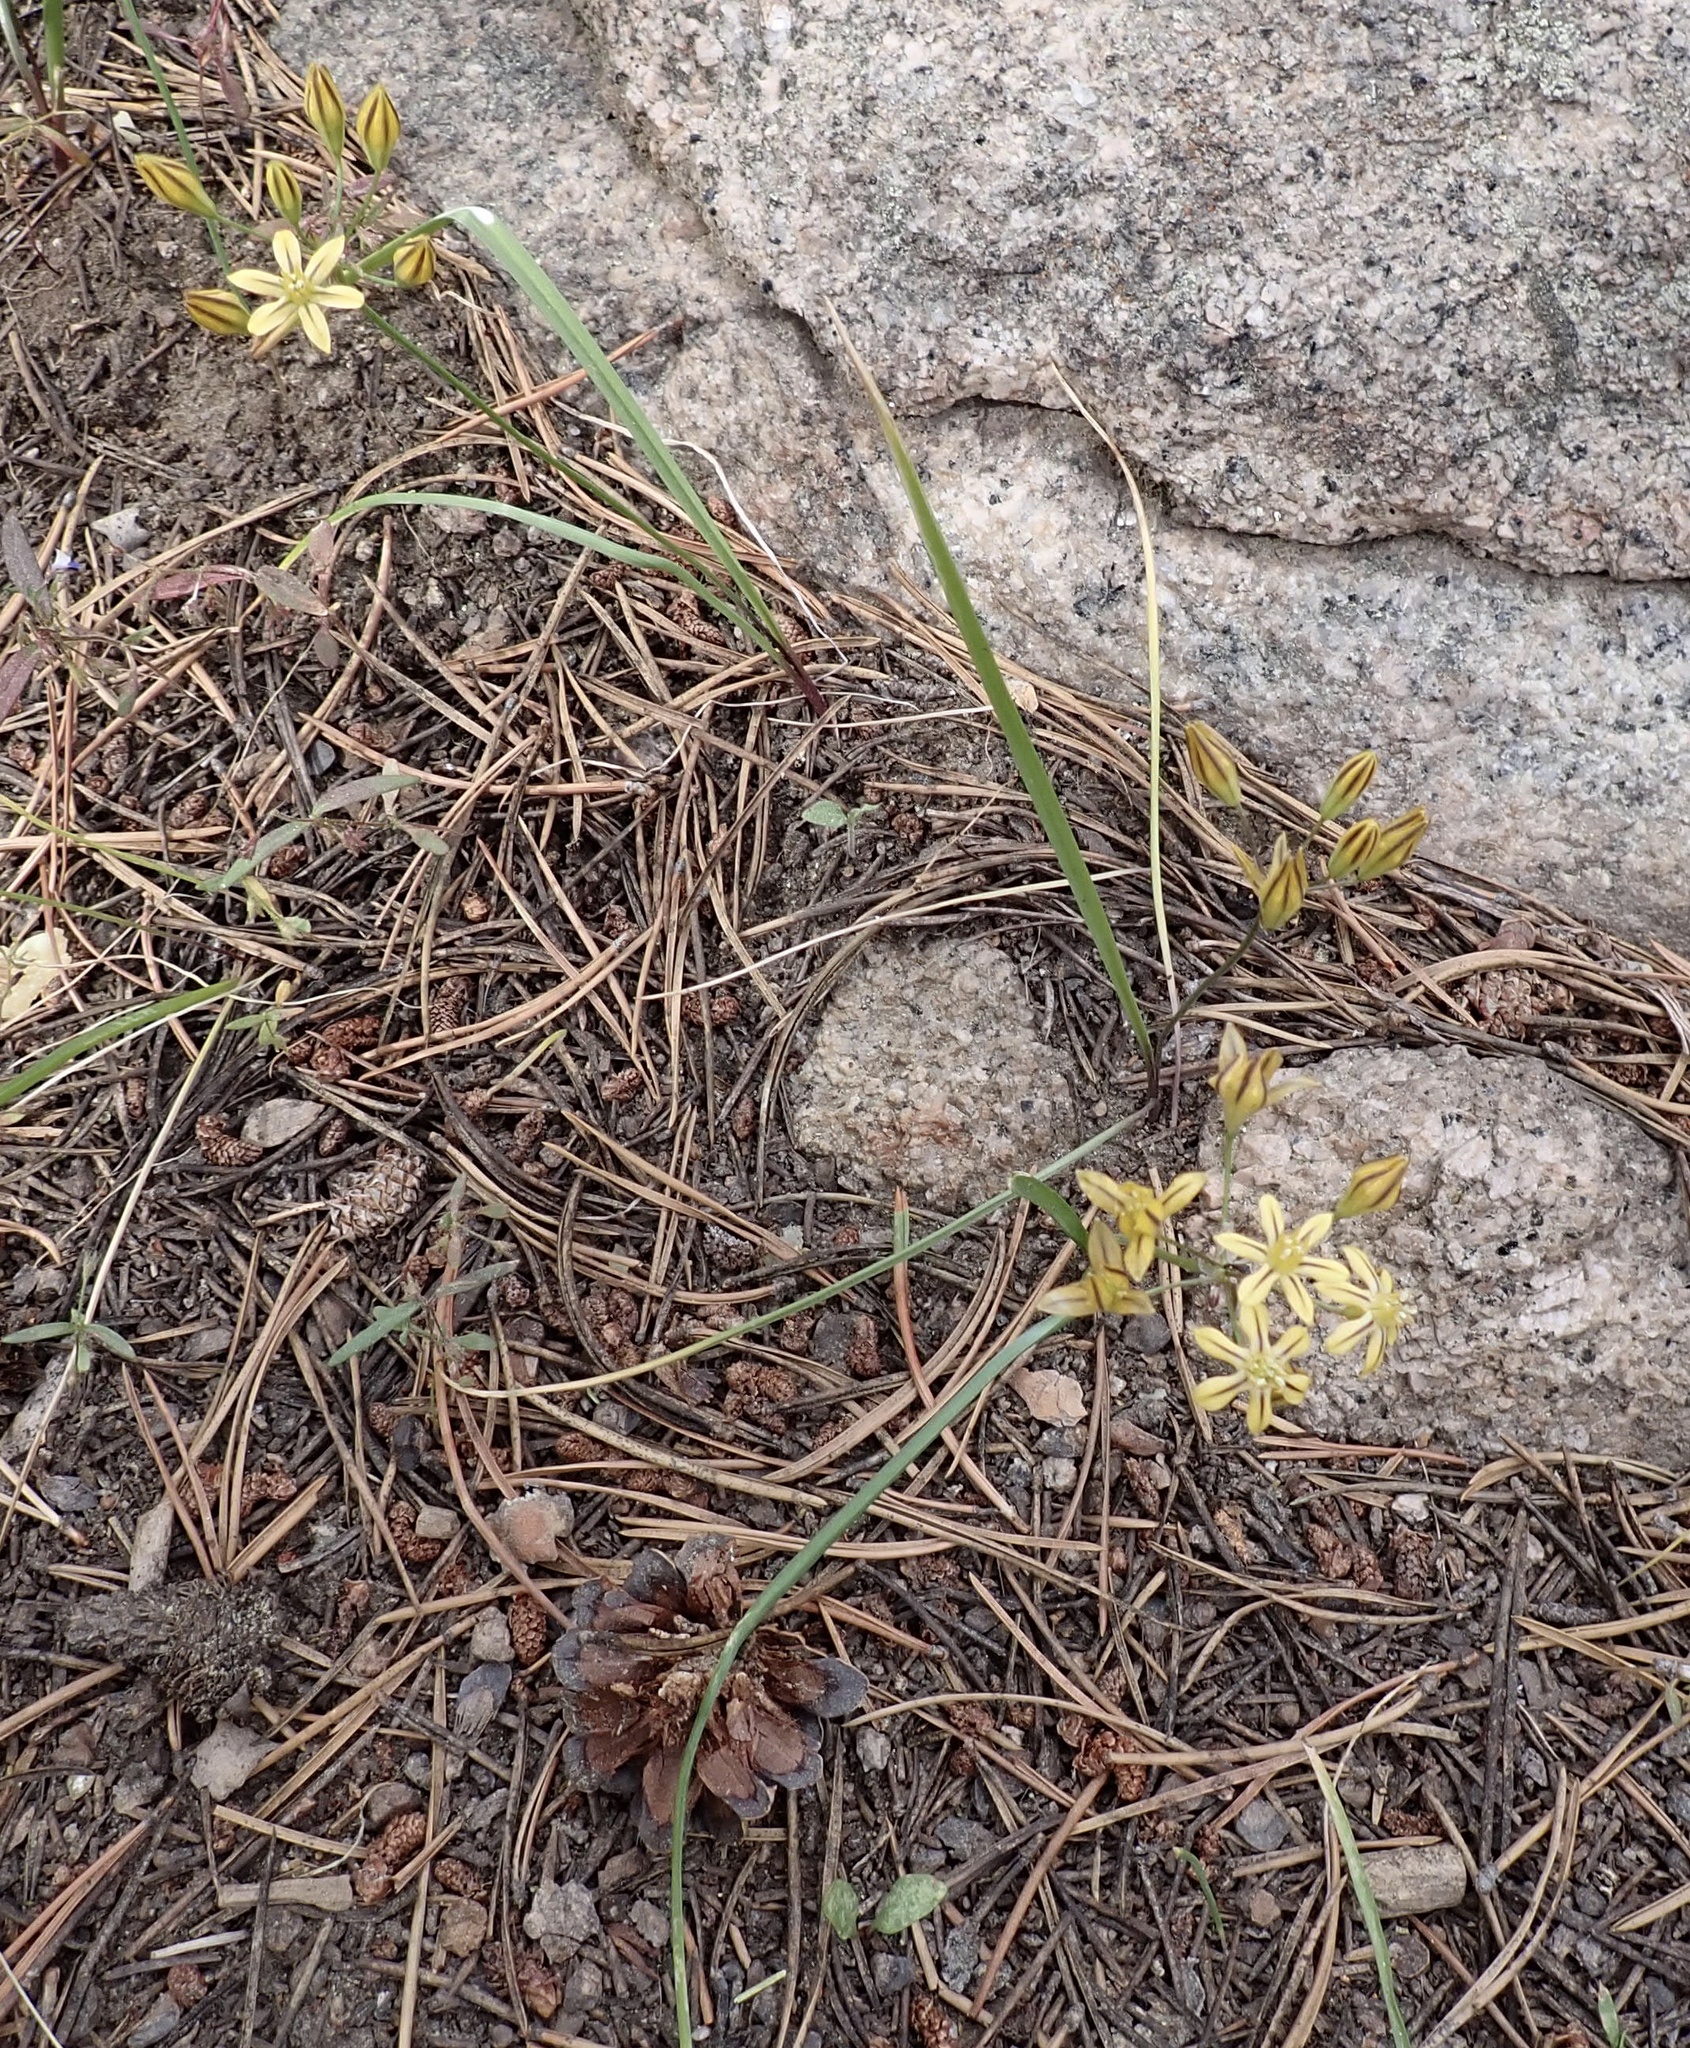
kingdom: Plantae
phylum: Tracheophyta
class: Liliopsida
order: Asparagales
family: Asparagaceae
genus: Triteleia
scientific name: Triteleia ixioides
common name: Yellow-brodiaea
